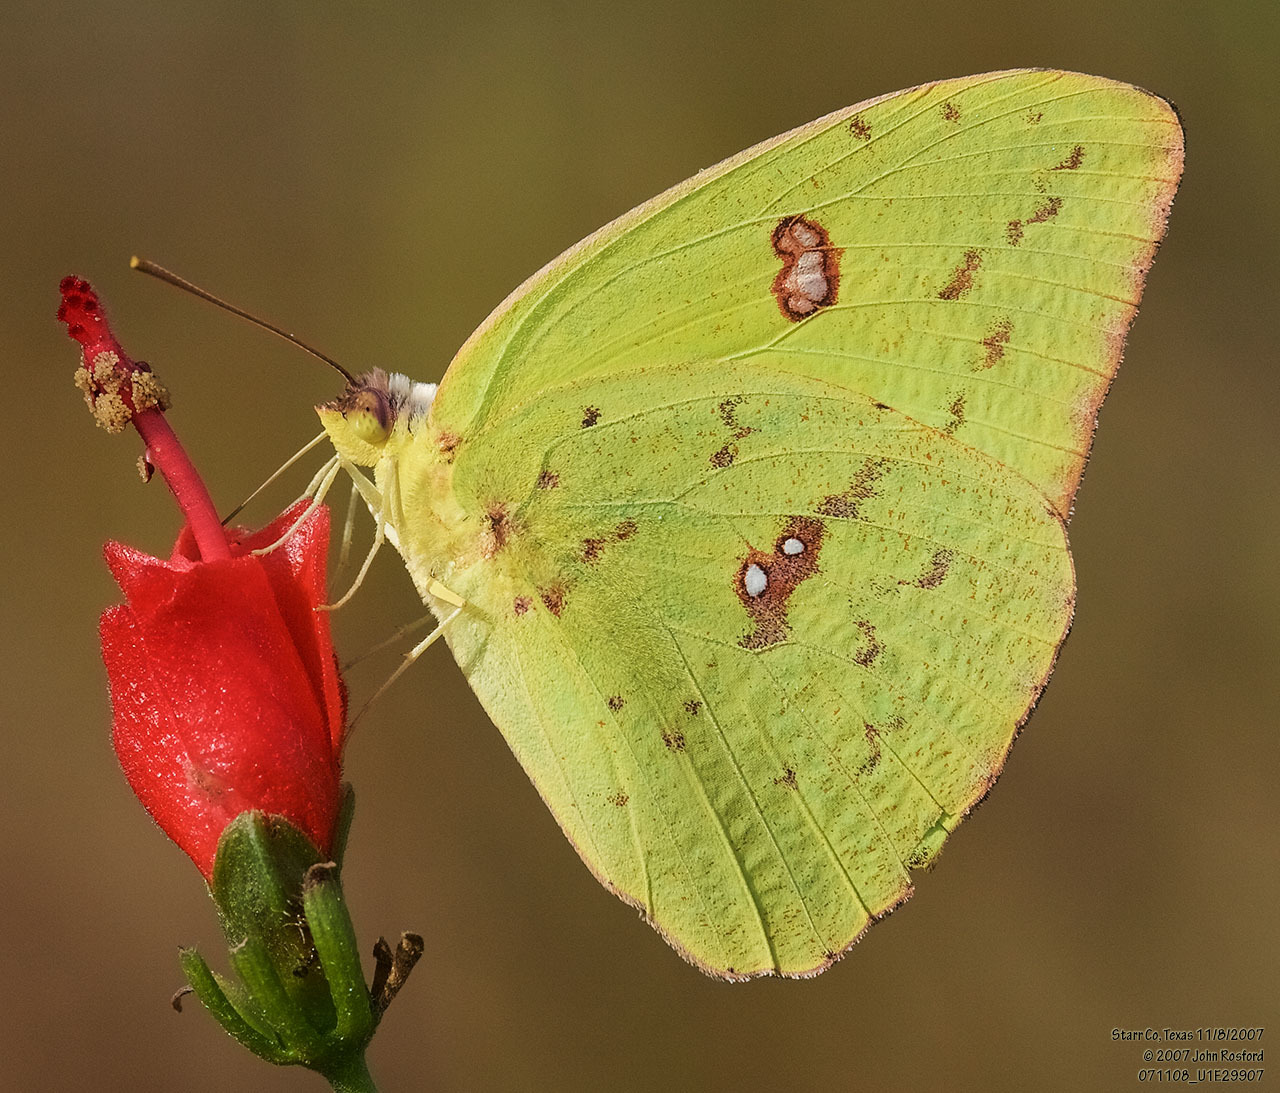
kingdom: Animalia
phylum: Arthropoda
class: Insecta
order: Lepidoptera
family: Pieridae
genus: Phoebis
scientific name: Phoebis sennae
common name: Cloudless sulphur
